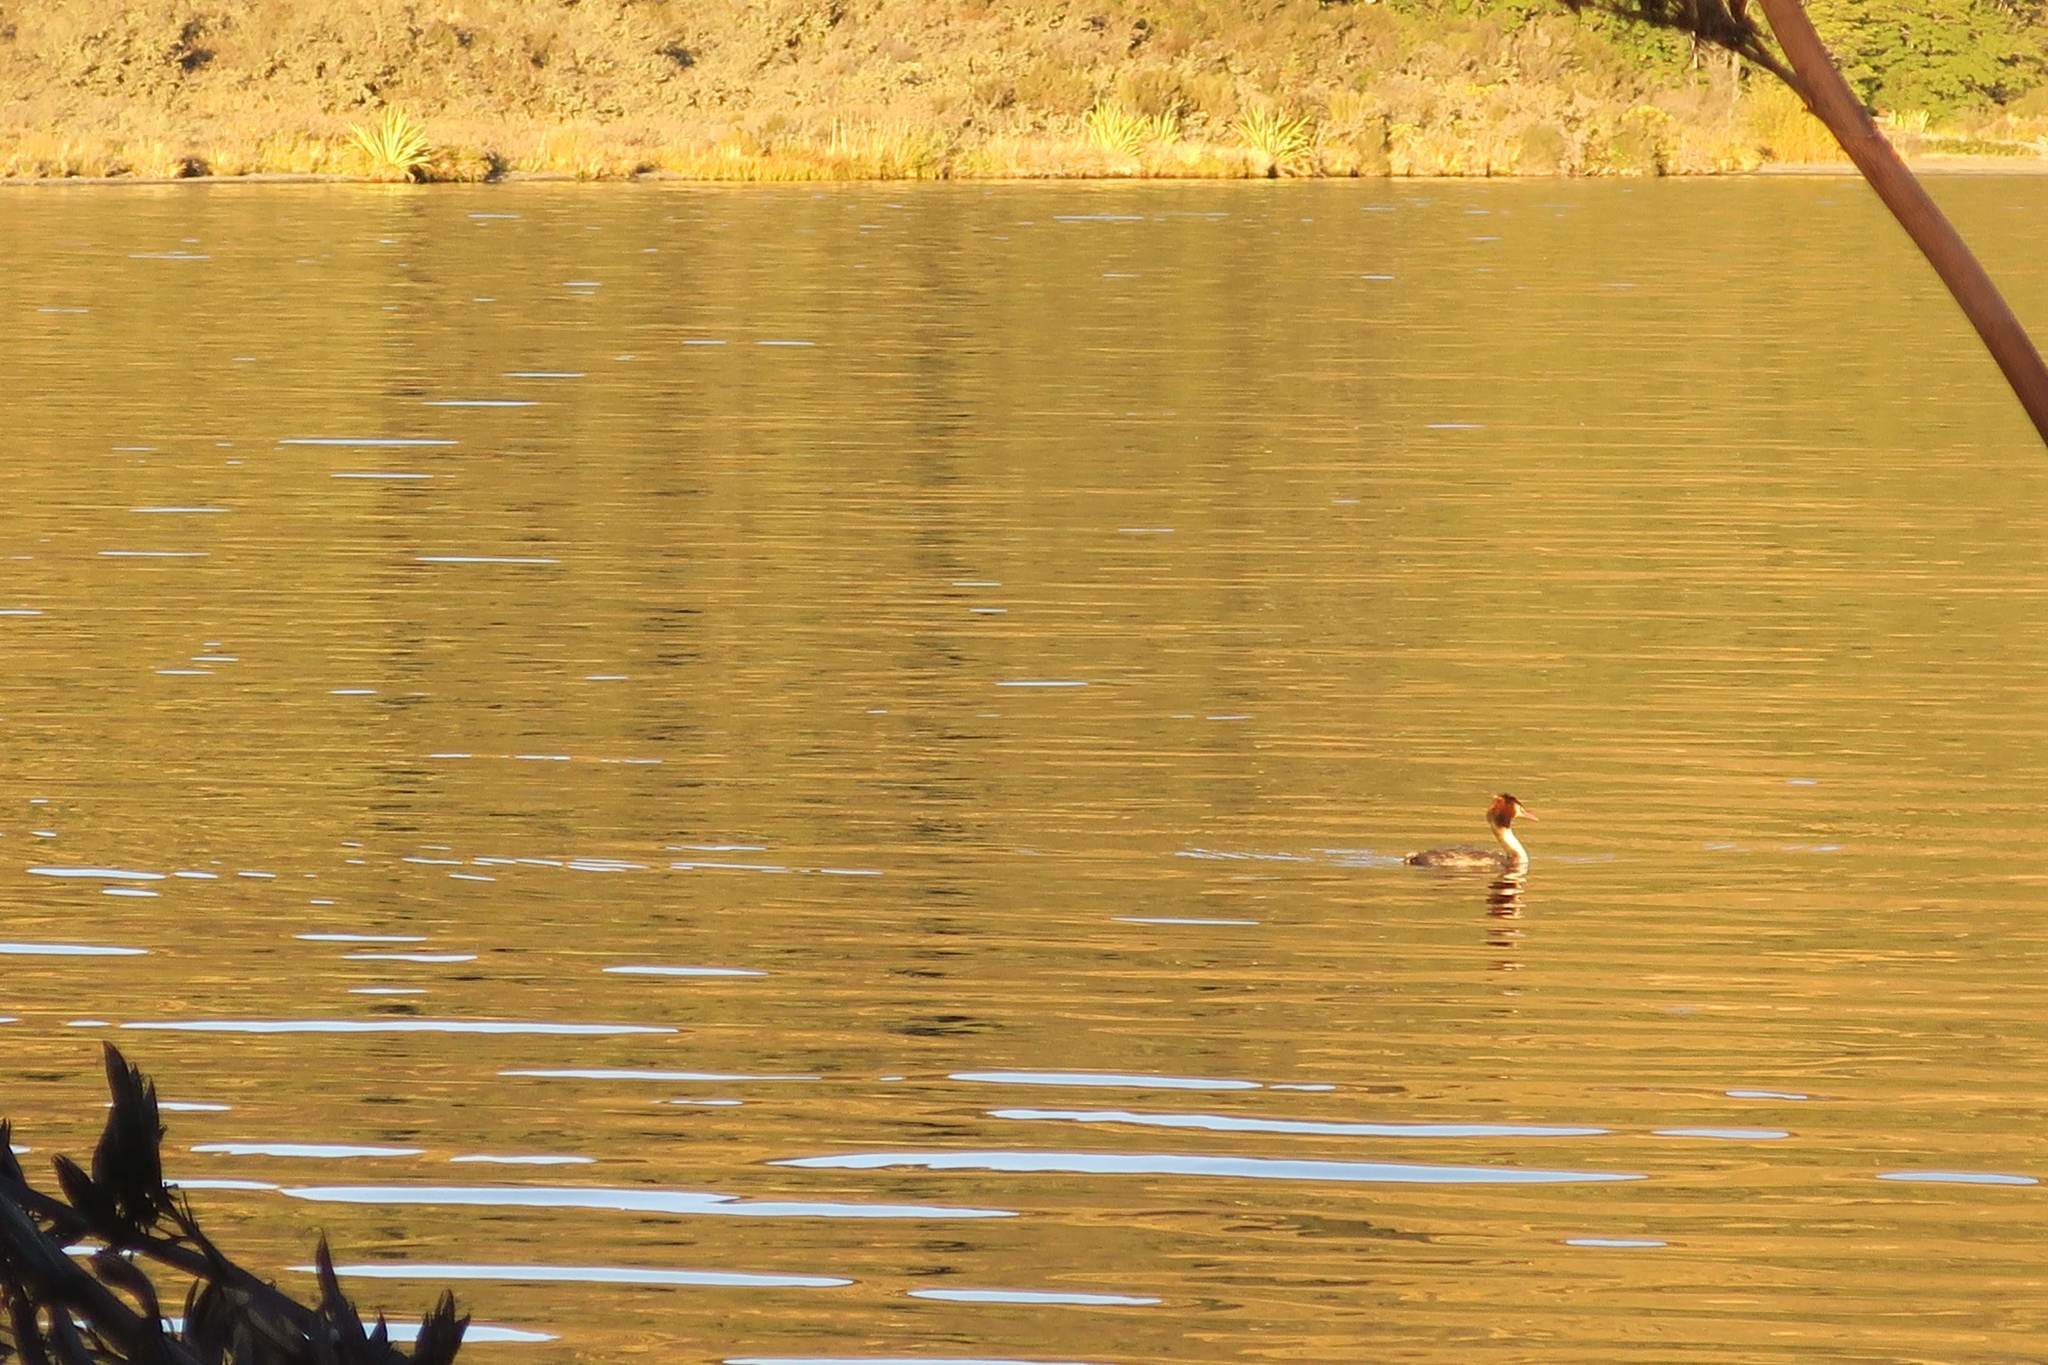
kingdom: Animalia
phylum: Chordata
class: Aves
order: Podicipediformes
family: Podicipedidae
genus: Podiceps
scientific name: Podiceps cristatus
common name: Great crested grebe
